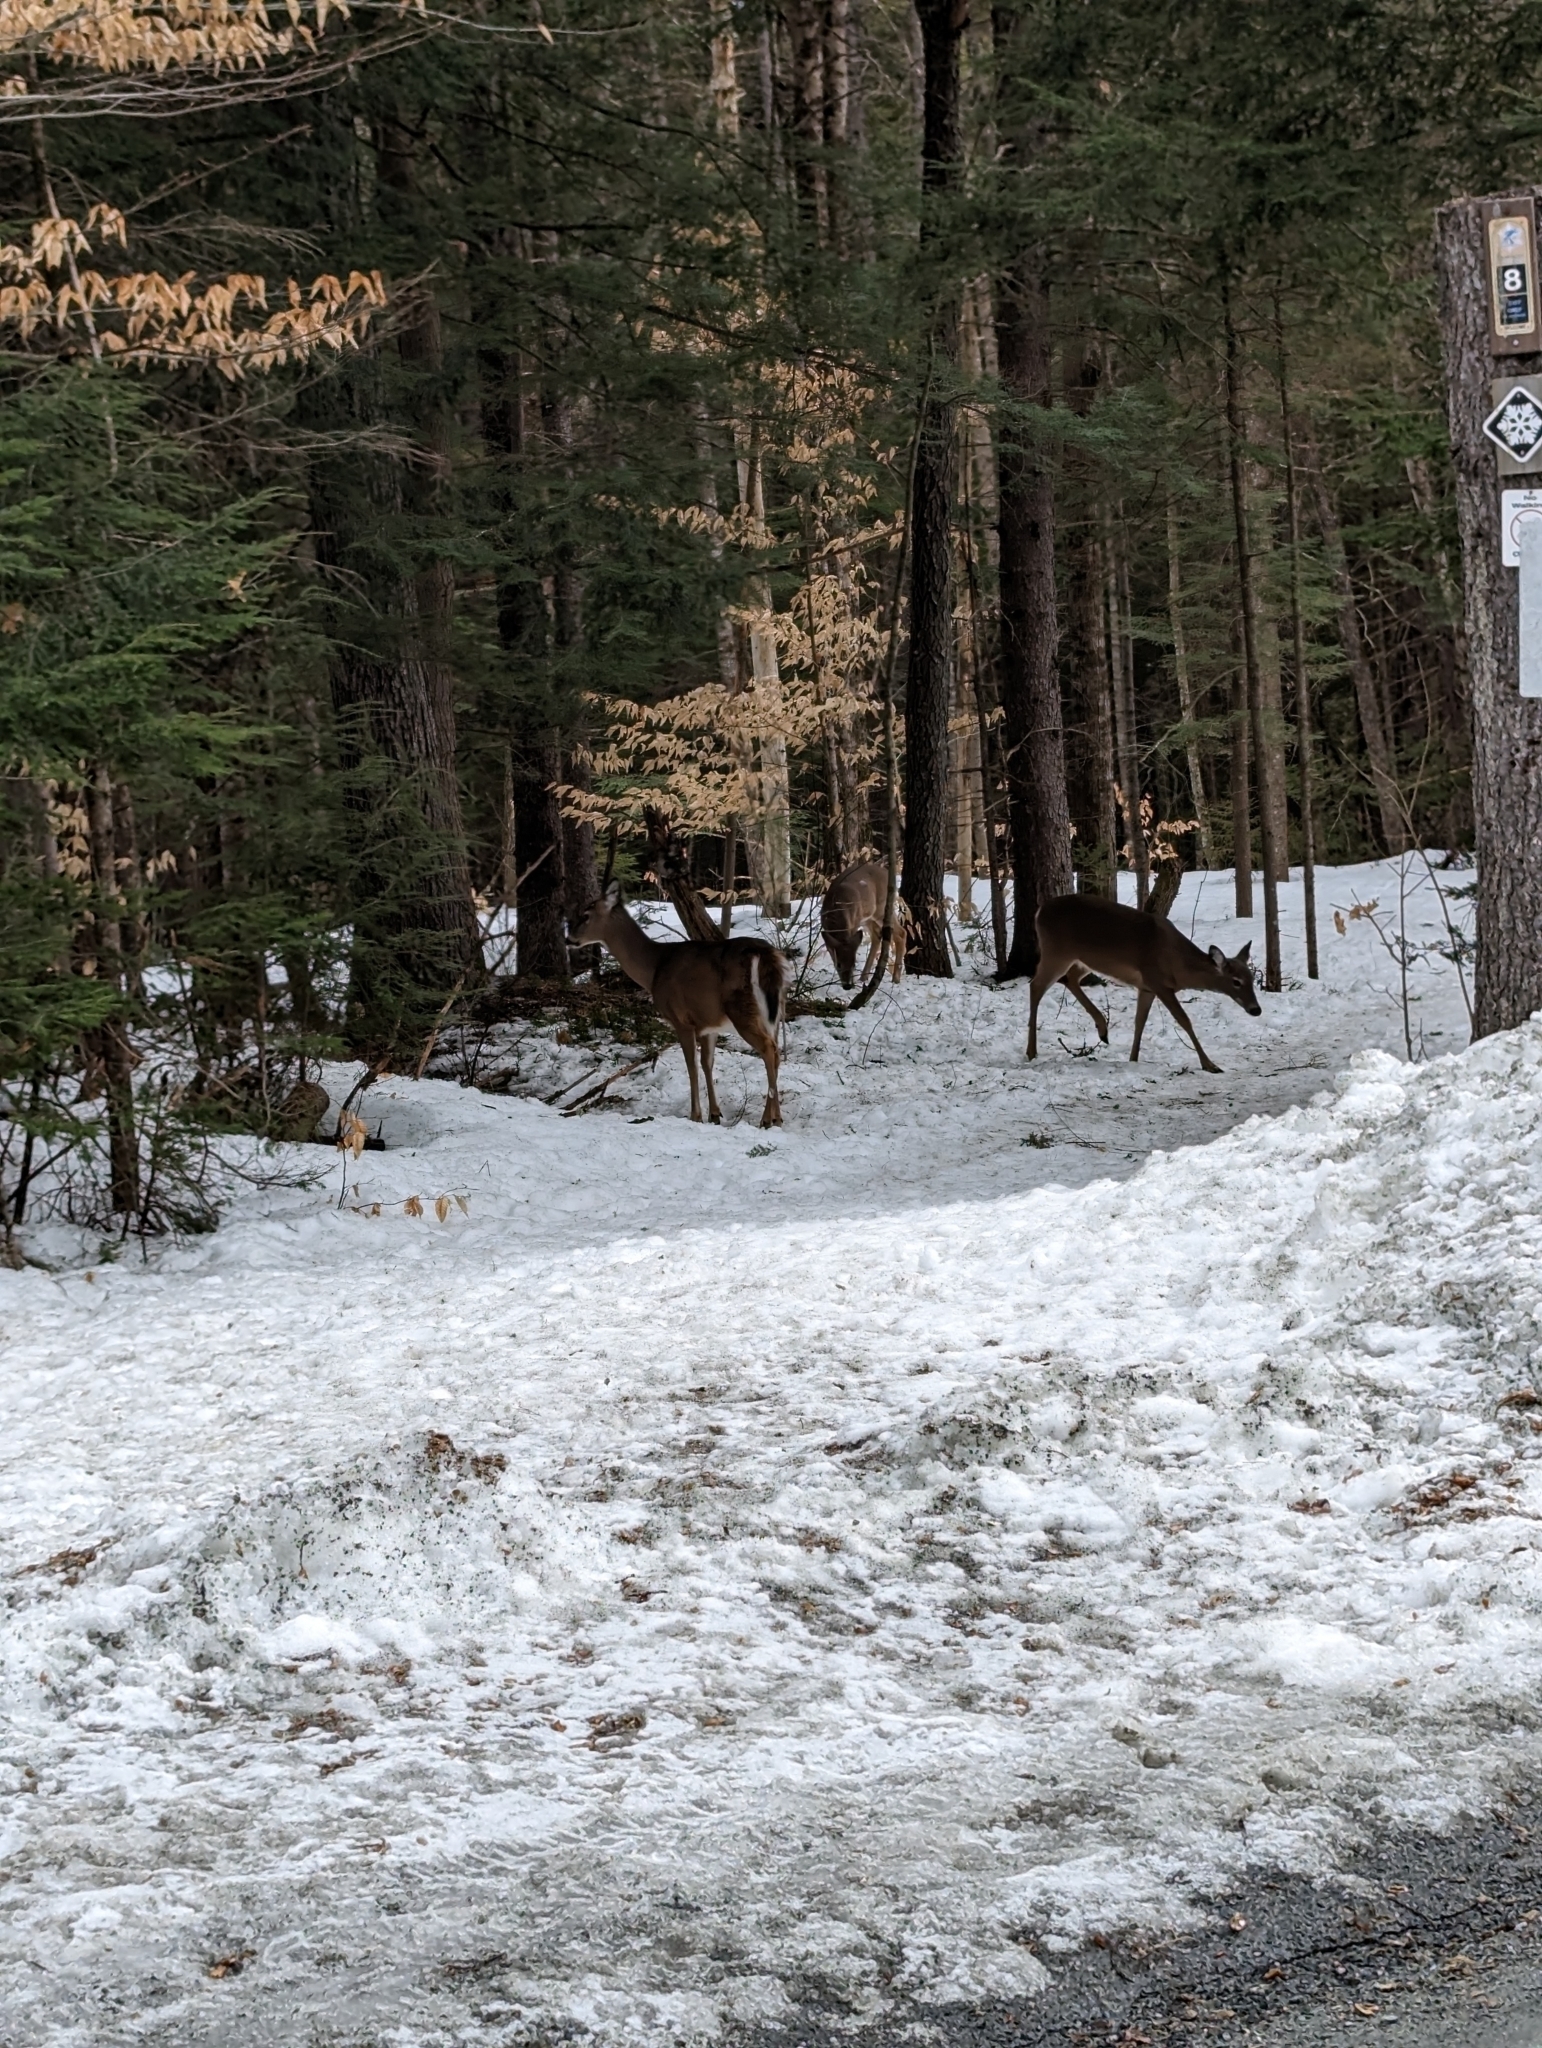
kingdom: Animalia
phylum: Chordata
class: Mammalia
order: Artiodactyla
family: Cervidae
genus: Odocoileus
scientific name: Odocoileus virginianus
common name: White-tailed deer
